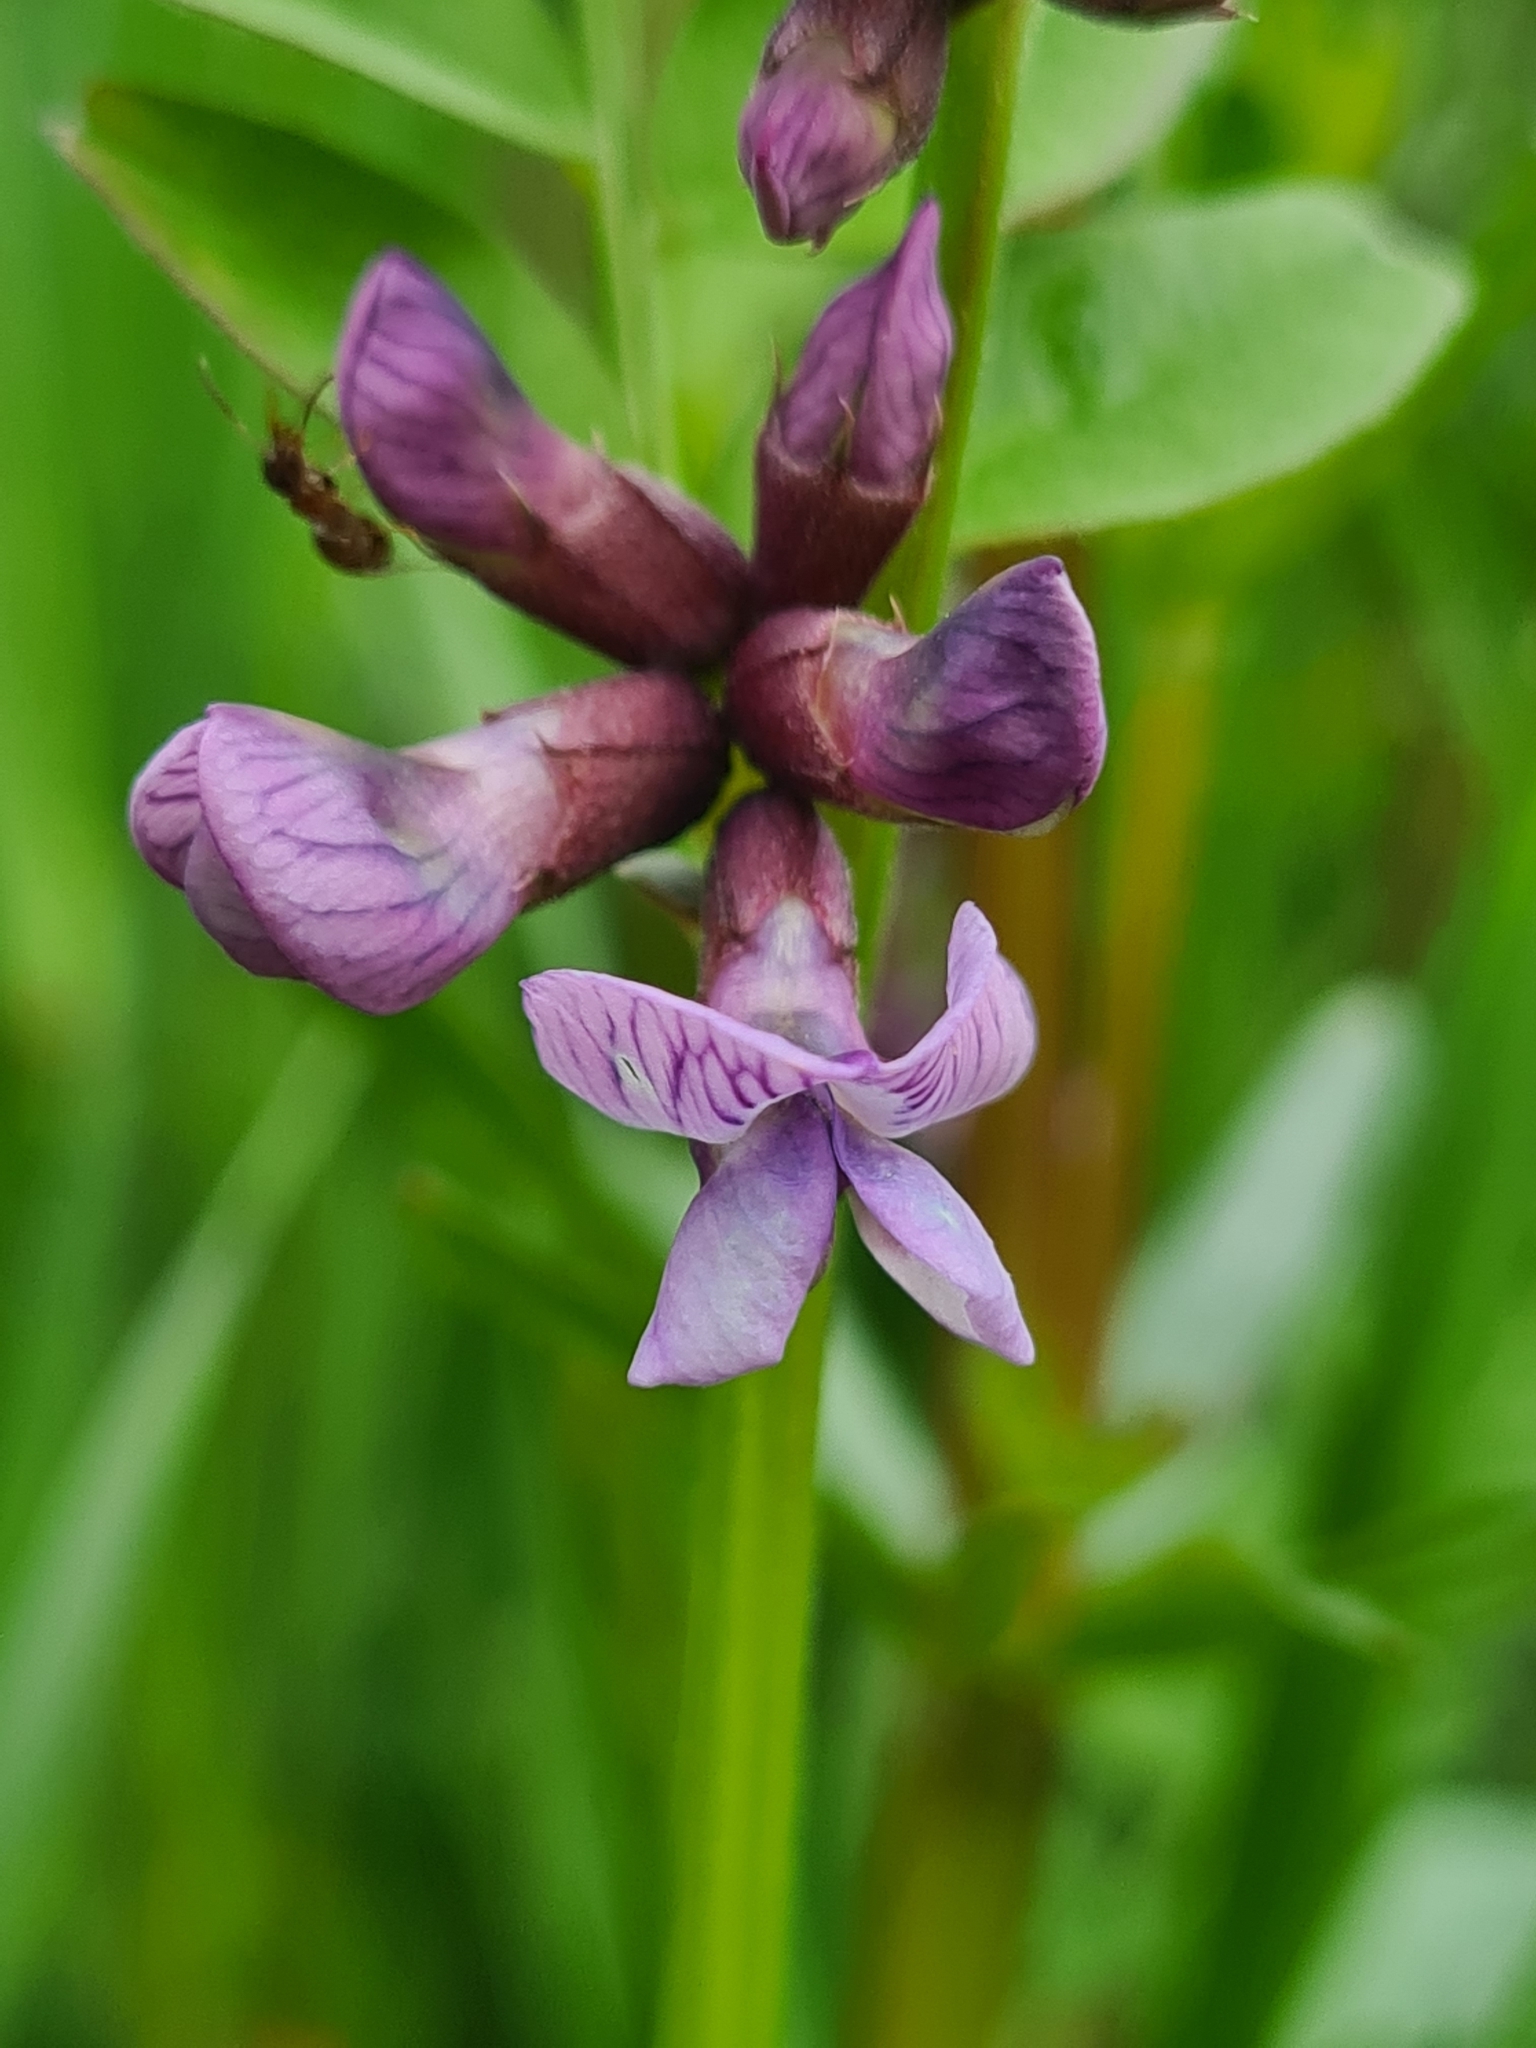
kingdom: Plantae
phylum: Tracheophyta
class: Magnoliopsida
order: Fabales
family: Fabaceae
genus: Vicia
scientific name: Vicia sepium
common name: Bush vetch
